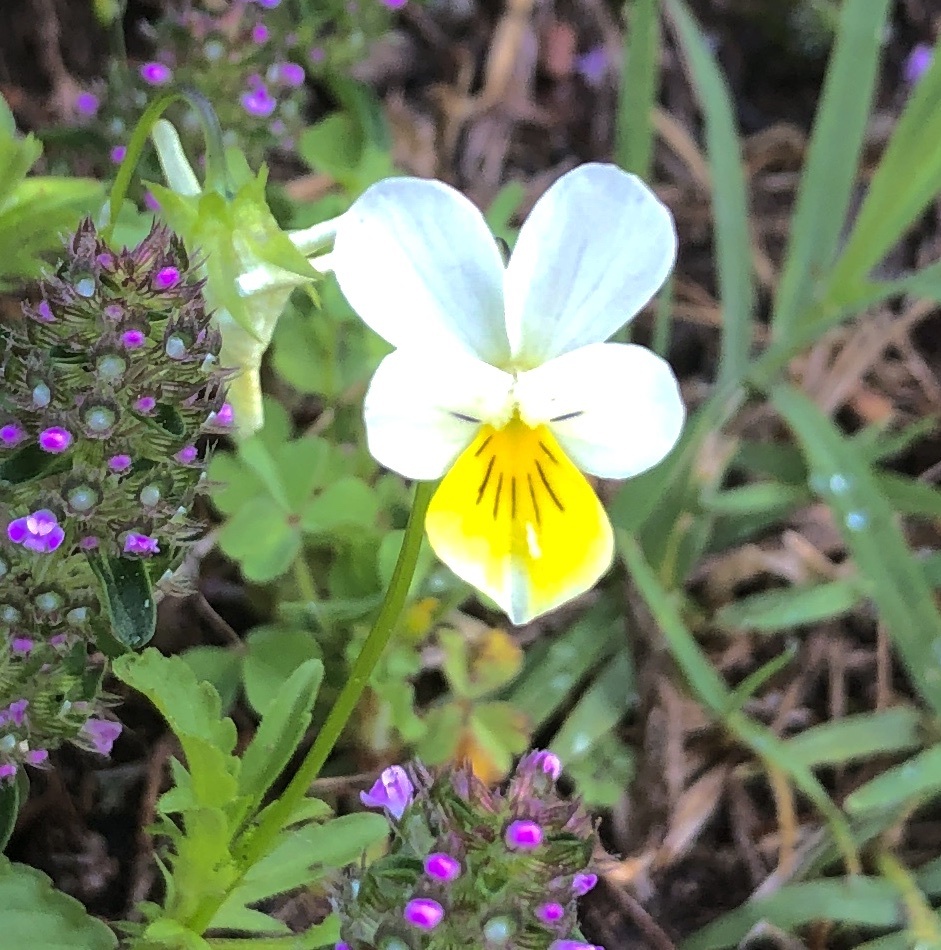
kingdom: Plantae
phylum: Tracheophyta
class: Magnoliopsida
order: Malpighiales
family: Violaceae
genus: Viola
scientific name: Viola arvensis
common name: Field pansy
